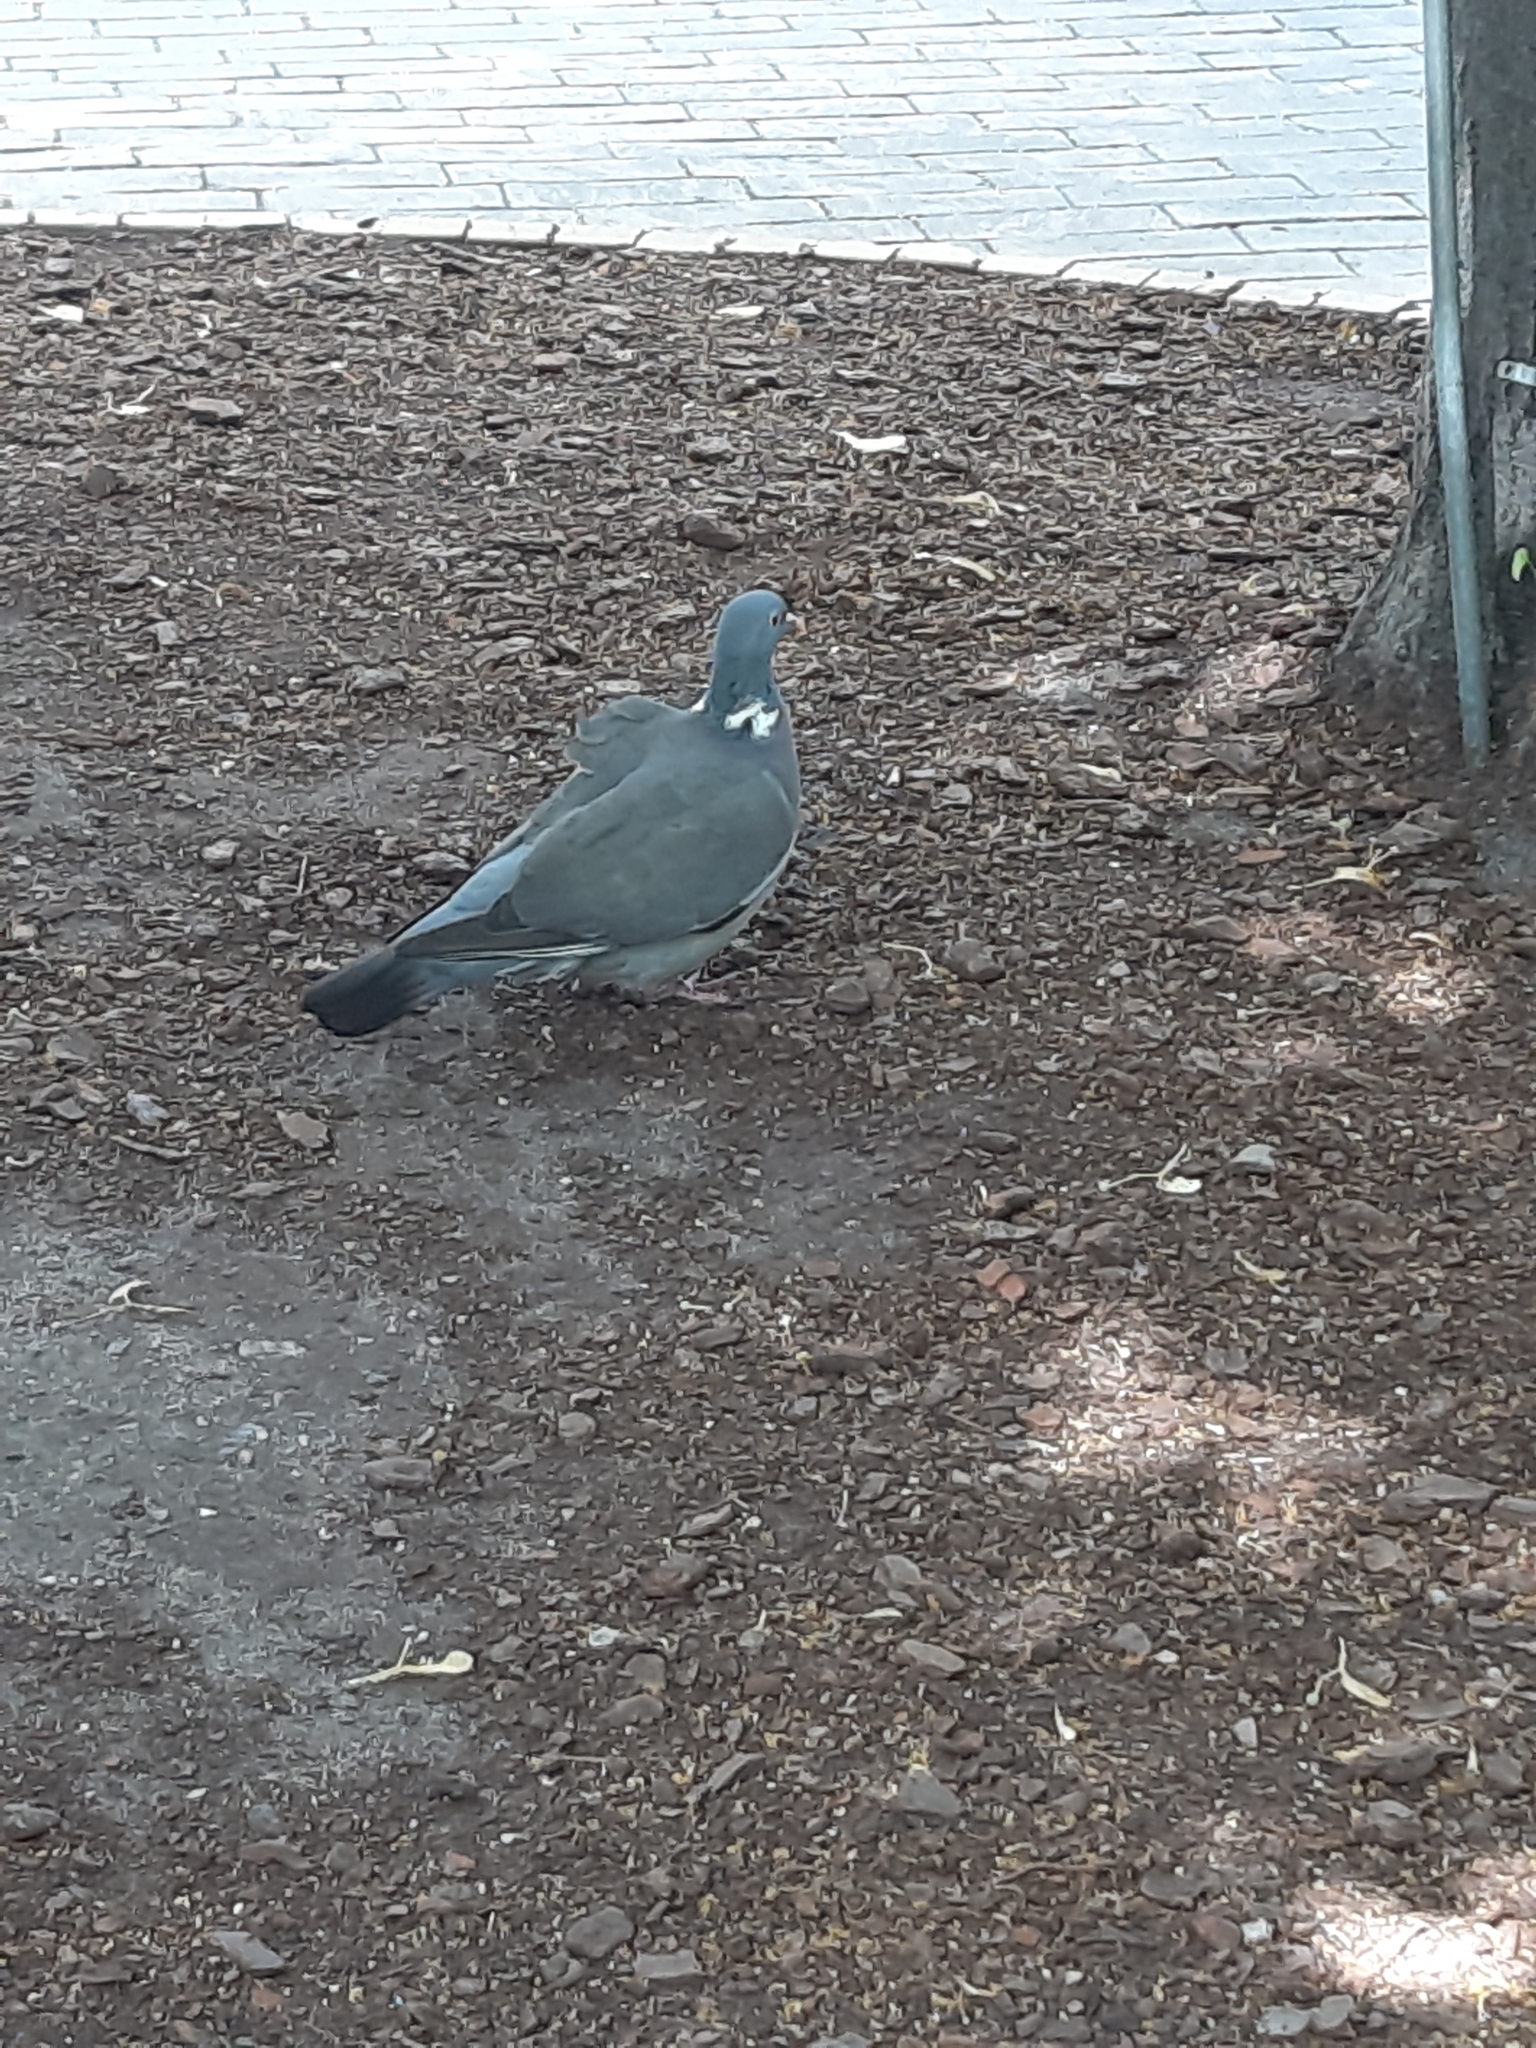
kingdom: Animalia
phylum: Chordata
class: Aves
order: Columbiformes
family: Columbidae
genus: Columba
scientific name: Columba palumbus
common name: Common wood pigeon
